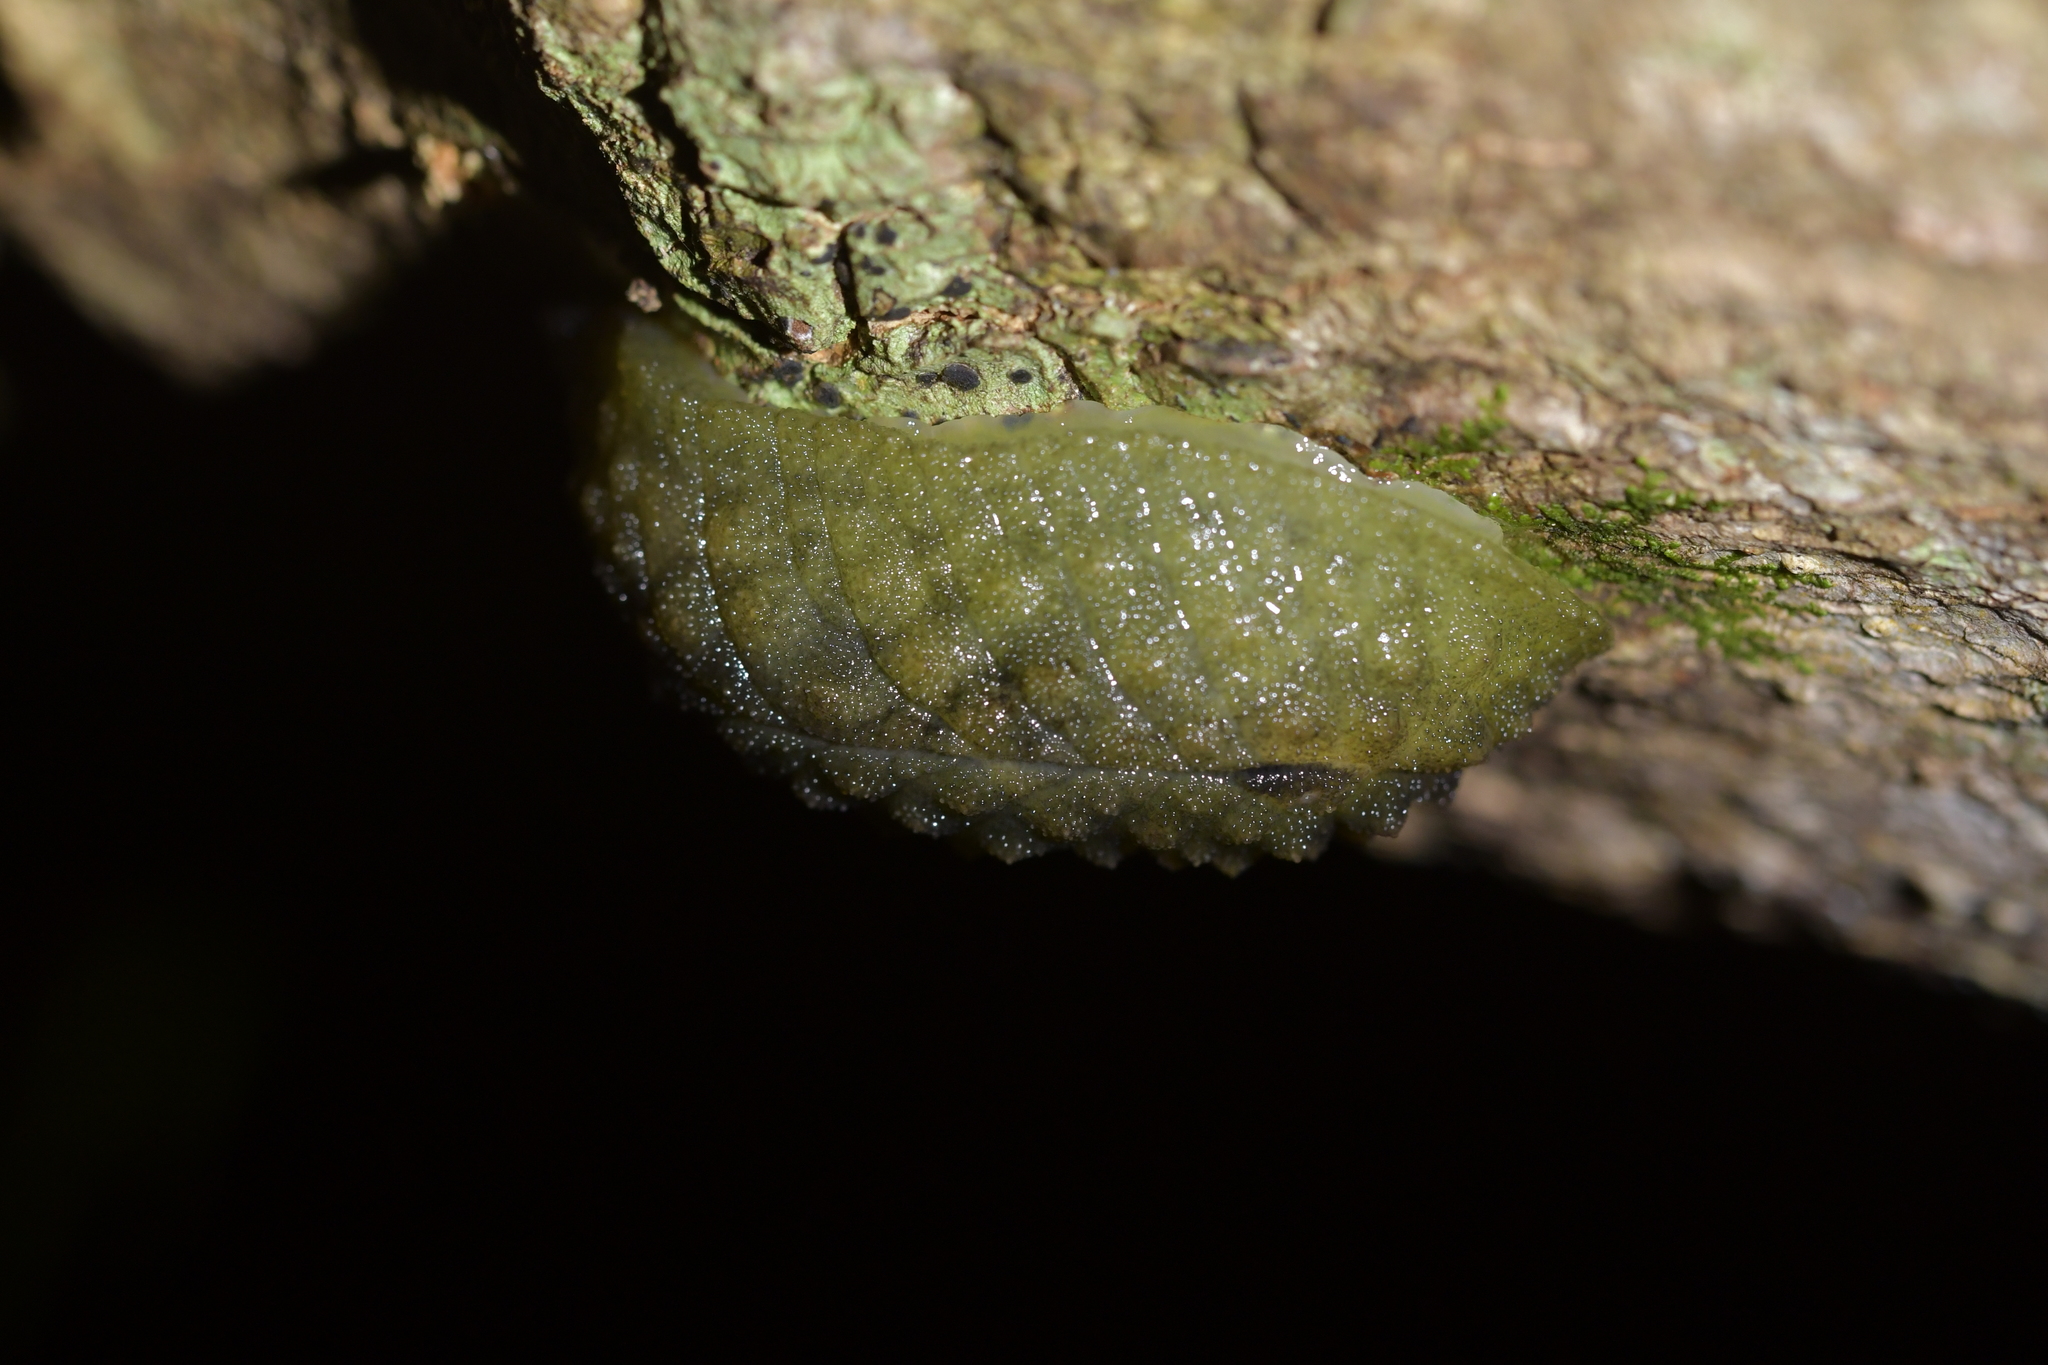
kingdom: Animalia
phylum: Mollusca
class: Gastropoda
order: Stylommatophora
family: Athoracophoridae
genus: Athoracophorus
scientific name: Athoracophorus papillatus
